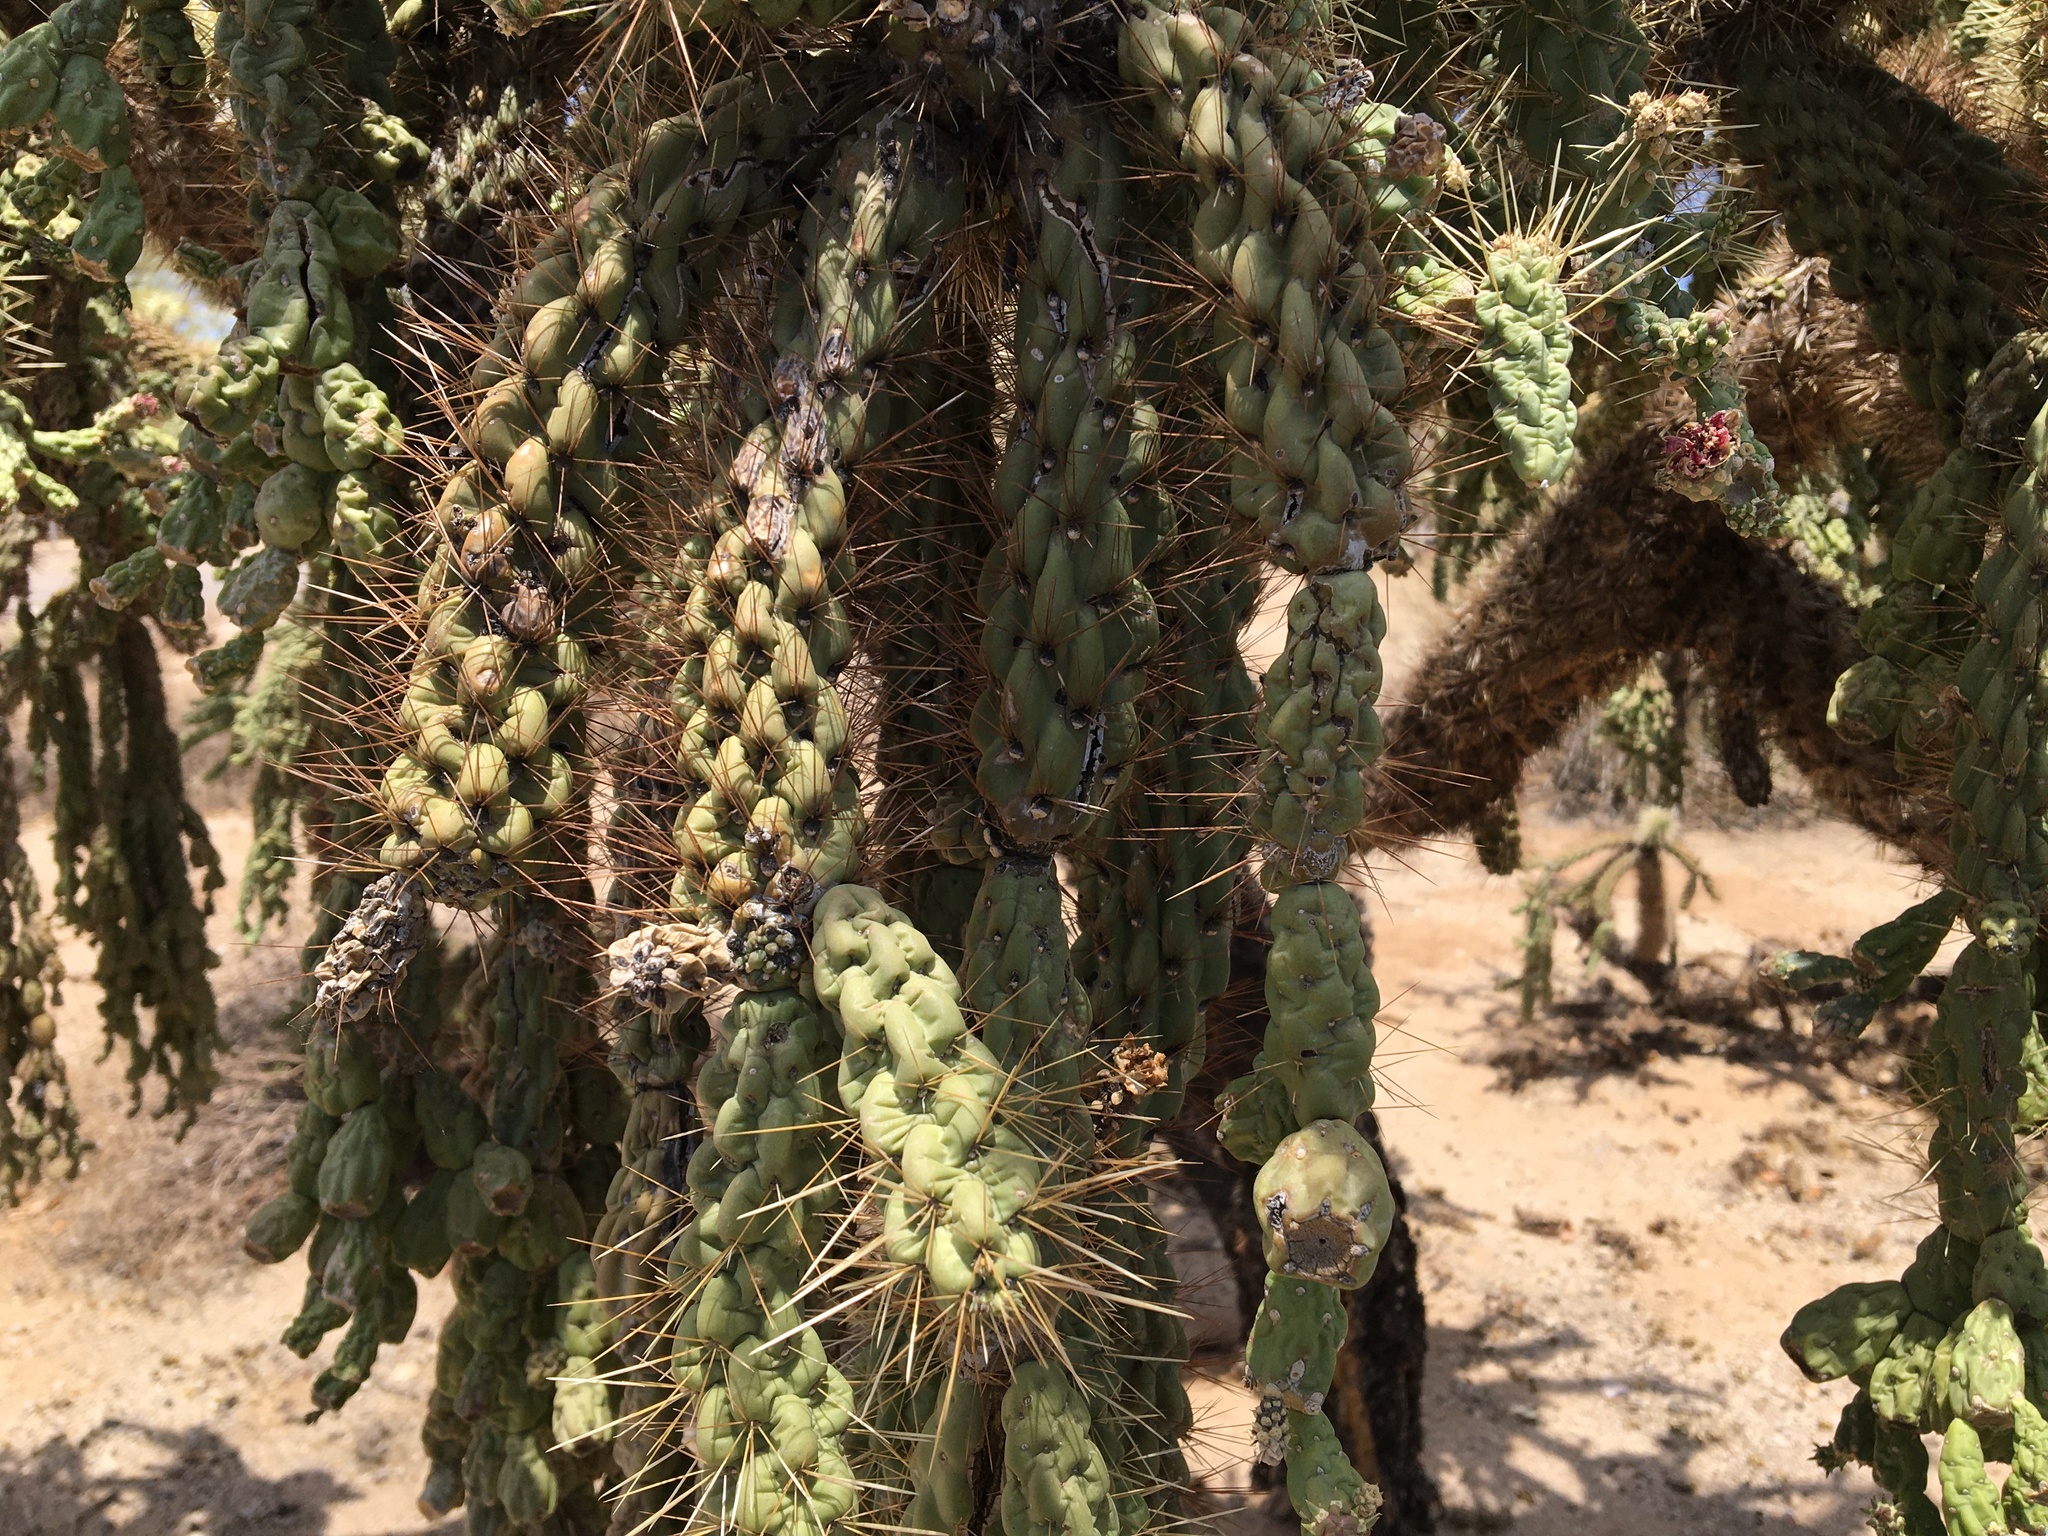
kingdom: Plantae
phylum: Tracheophyta
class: Magnoliopsida
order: Caryophyllales
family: Cactaceae
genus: Cylindropuntia
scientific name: Cylindropuntia fulgida
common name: Jumping cholla
